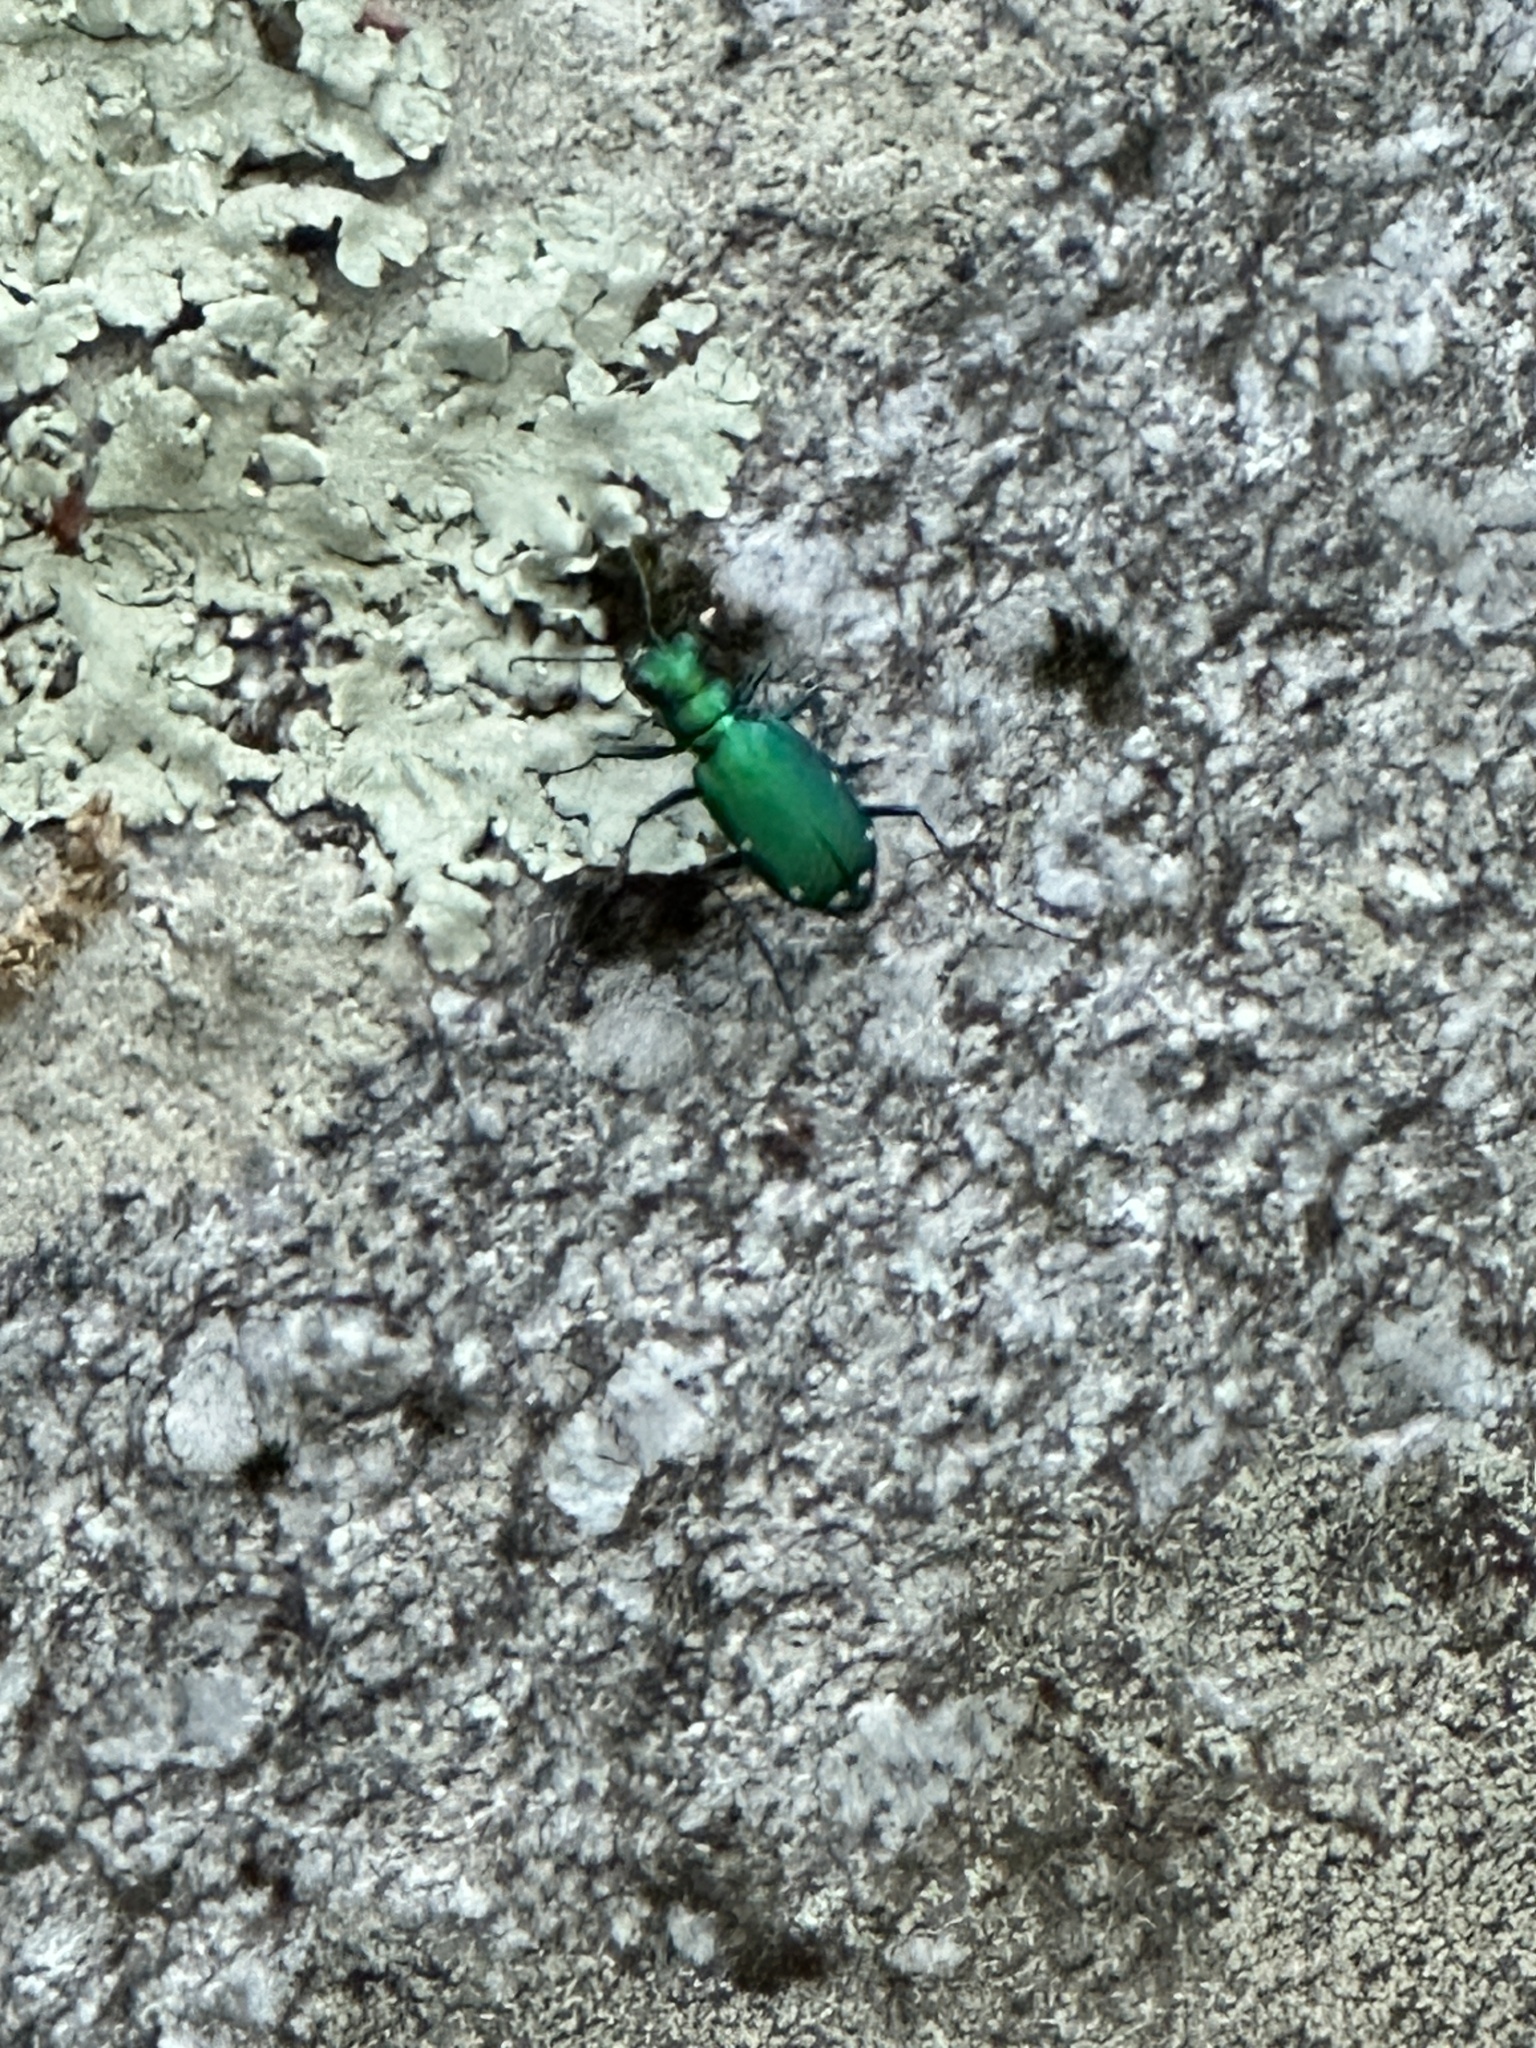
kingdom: Animalia
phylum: Arthropoda
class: Insecta
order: Coleoptera
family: Carabidae
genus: Cicindela
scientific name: Cicindela sexguttata
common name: Six-spotted tiger beetle
